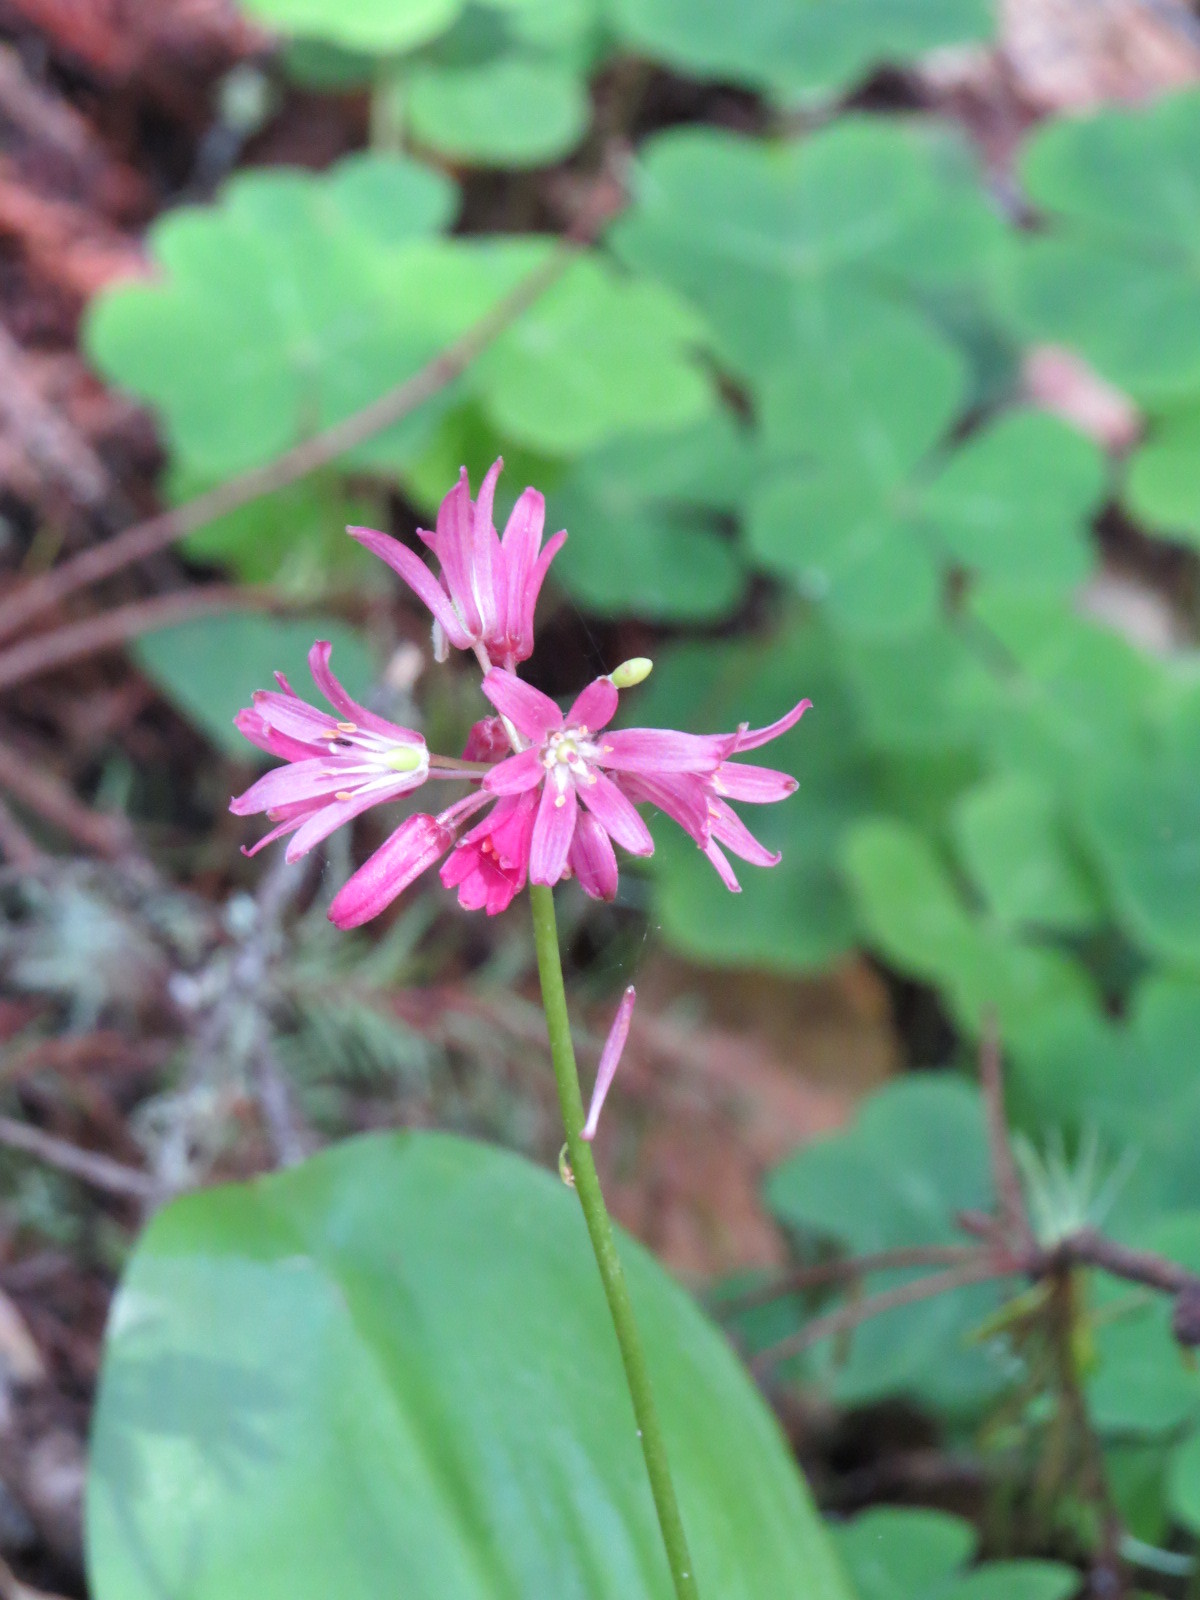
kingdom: Plantae
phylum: Tracheophyta
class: Liliopsida
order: Liliales
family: Liliaceae
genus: Clintonia
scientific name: Clintonia andrewsiana
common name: Red clintonia
